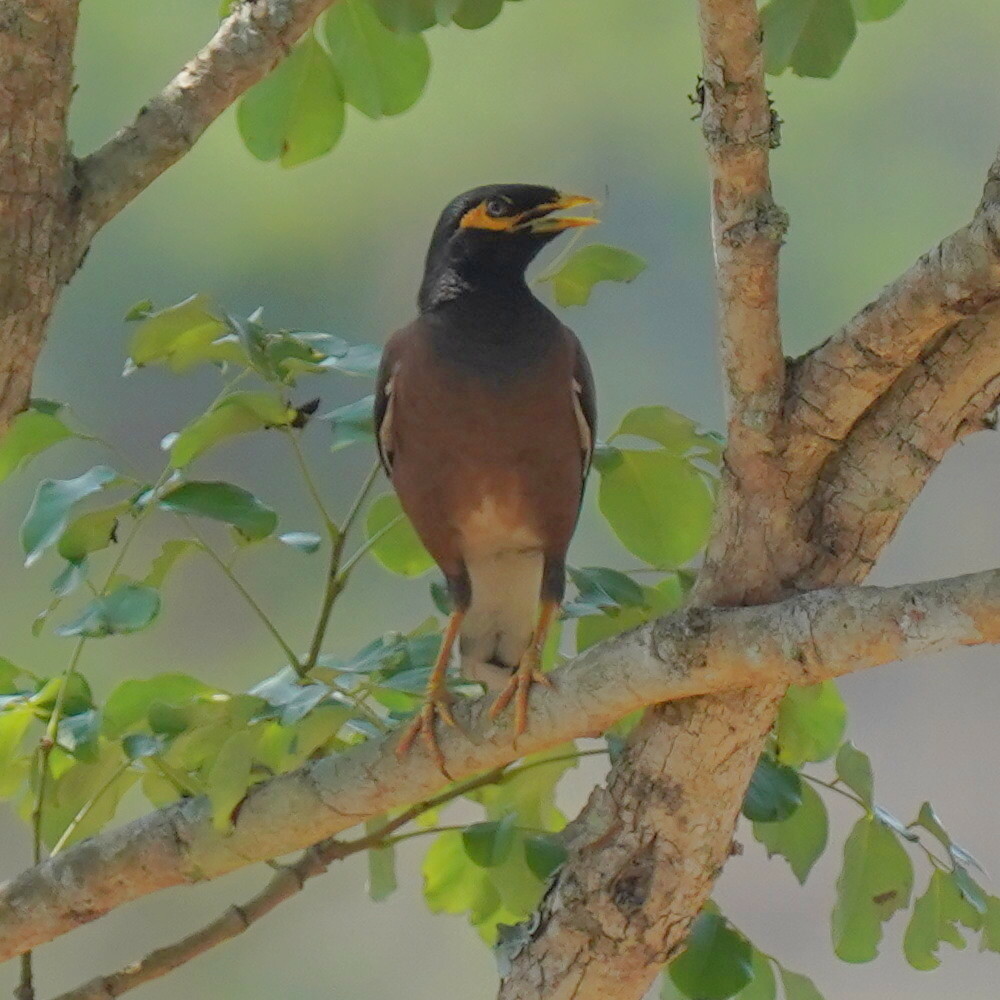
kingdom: Animalia
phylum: Chordata
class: Aves
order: Passeriformes
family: Sturnidae
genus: Acridotheres
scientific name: Acridotheres tristis
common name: Common myna
